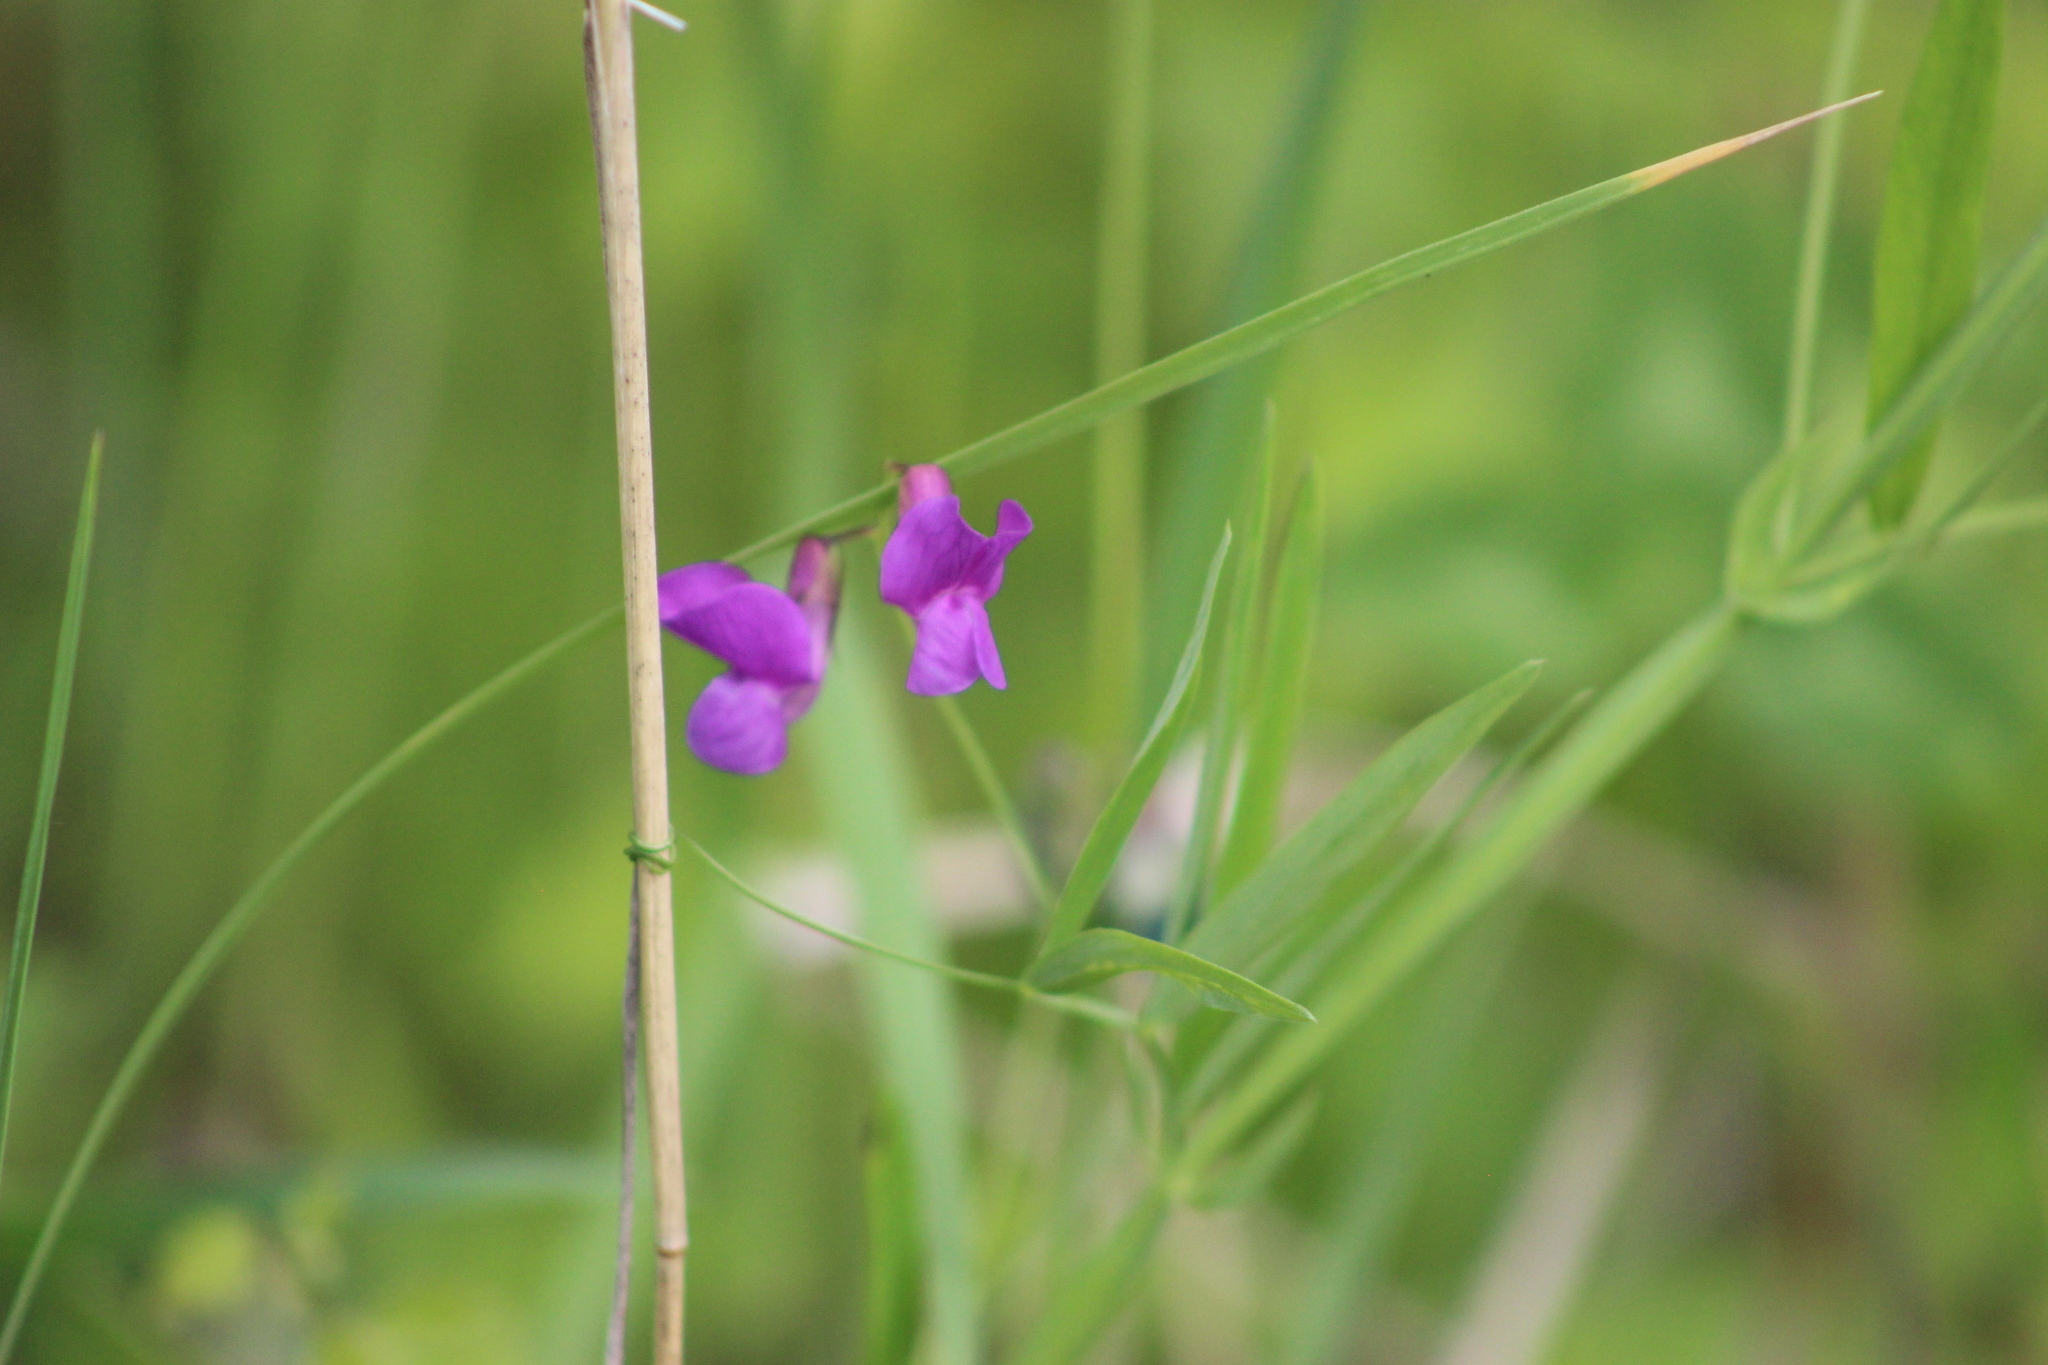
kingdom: Plantae
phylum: Tracheophyta
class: Magnoliopsida
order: Fabales
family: Fabaceae
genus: Lathyrus
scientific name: Lathyrus palustris
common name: Marsh pea
